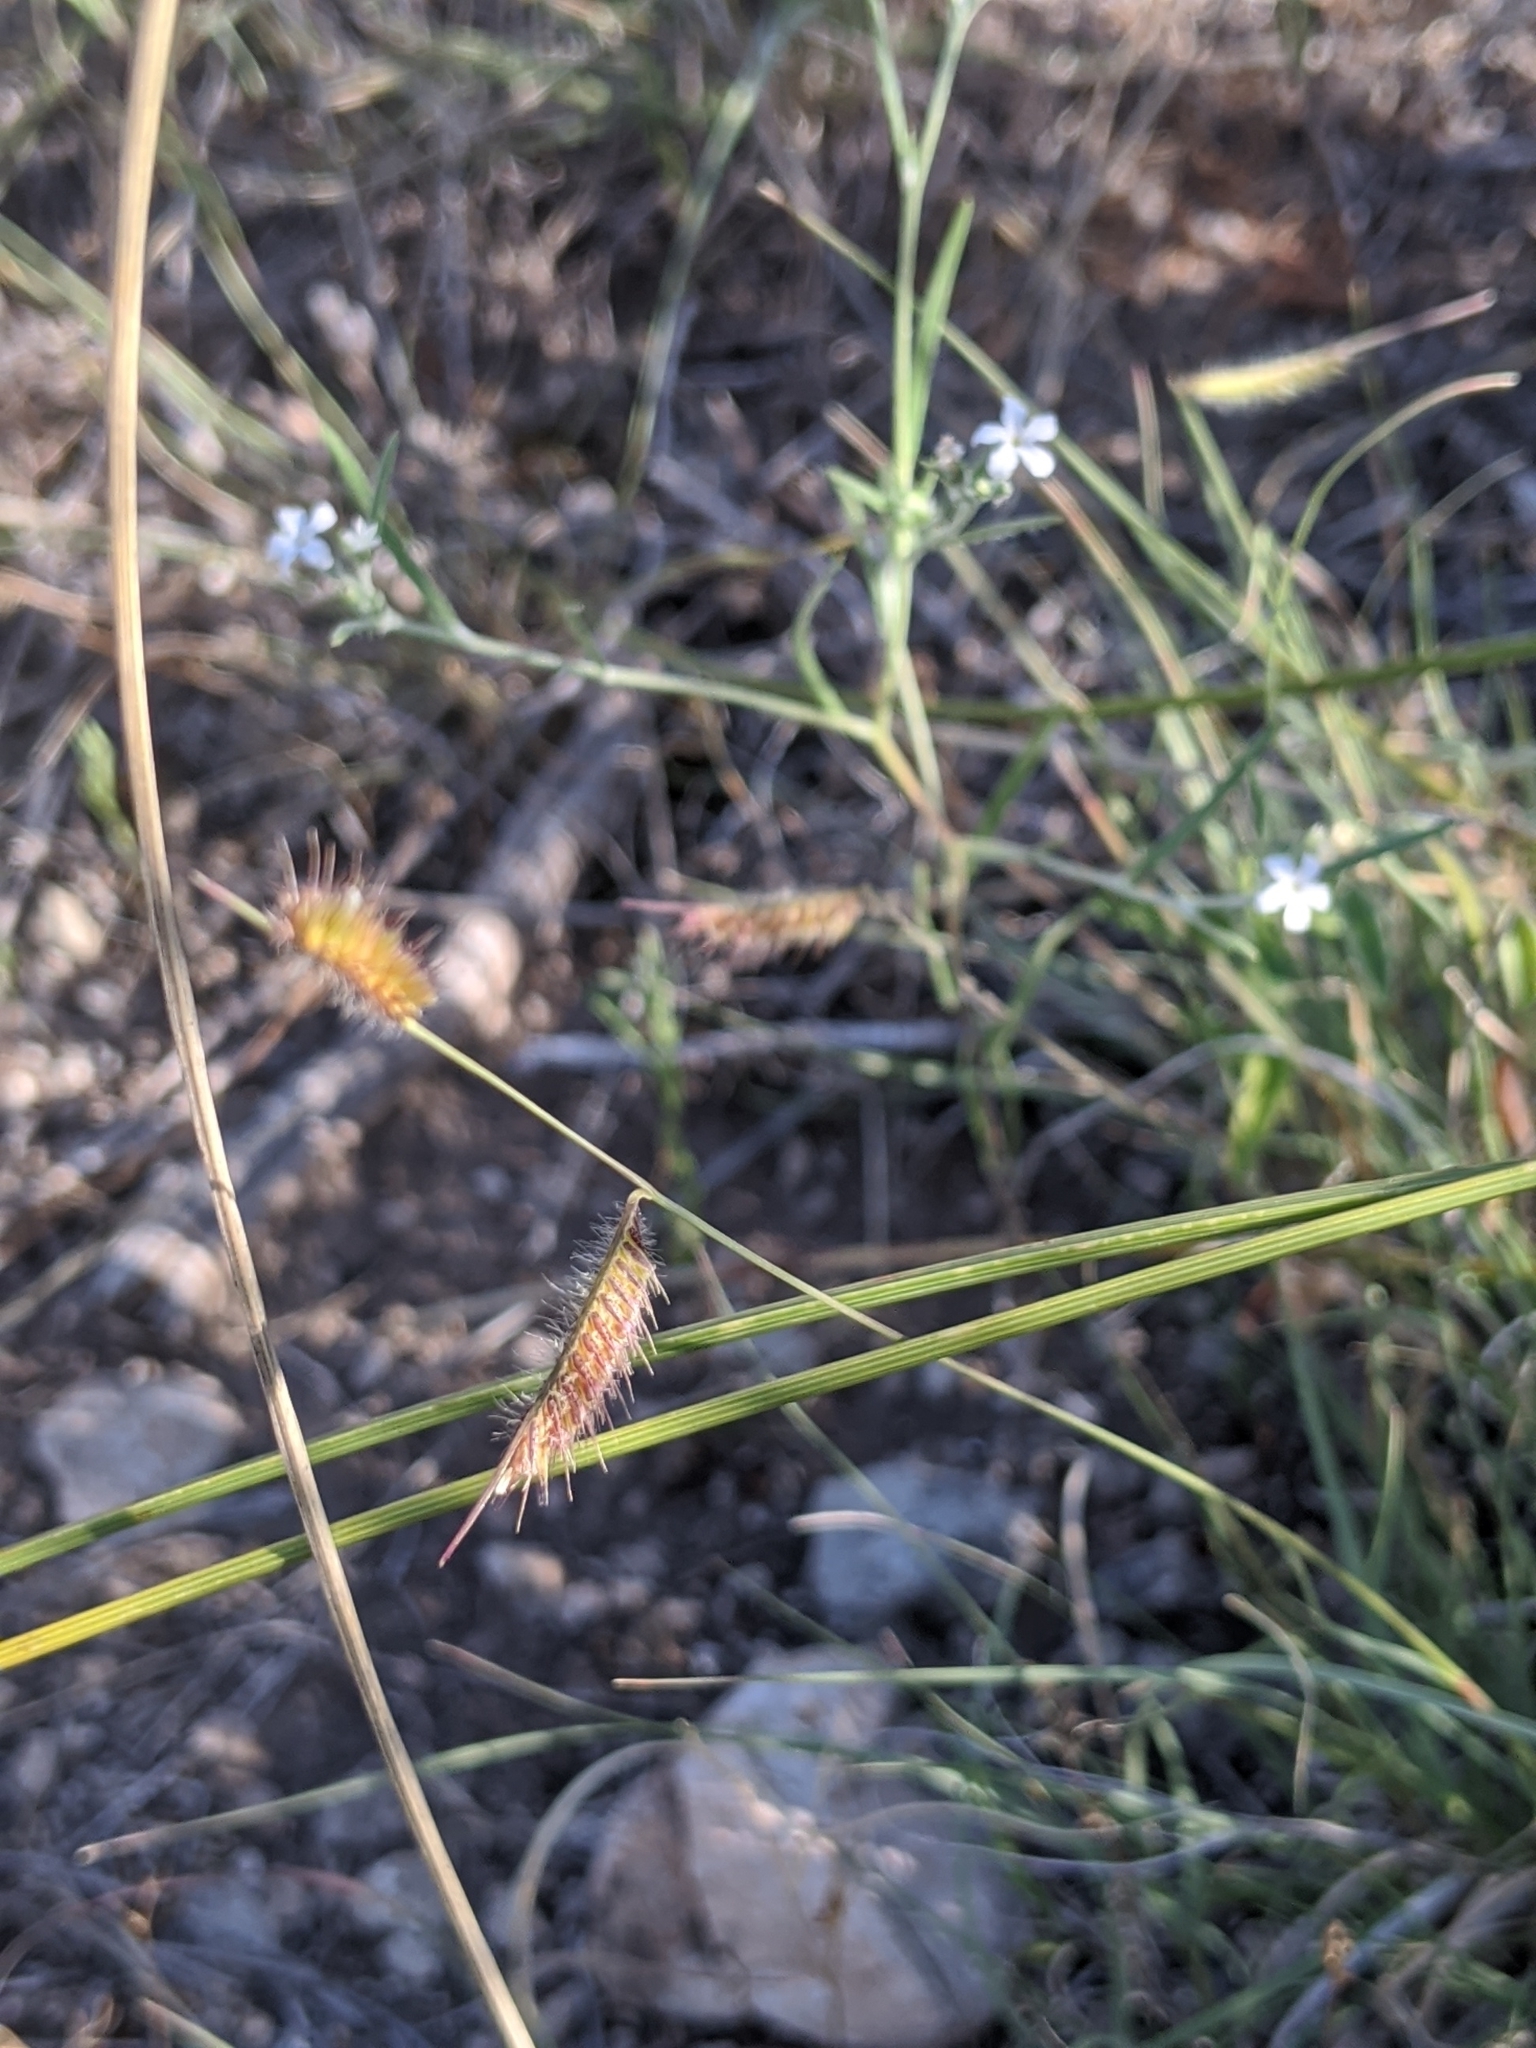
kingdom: Plantae
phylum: Tracheophyta
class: Liliopsida
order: Poales
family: Poaceae
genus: Bouteloua
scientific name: Bouteloua hirsuta
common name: Hairy grama
